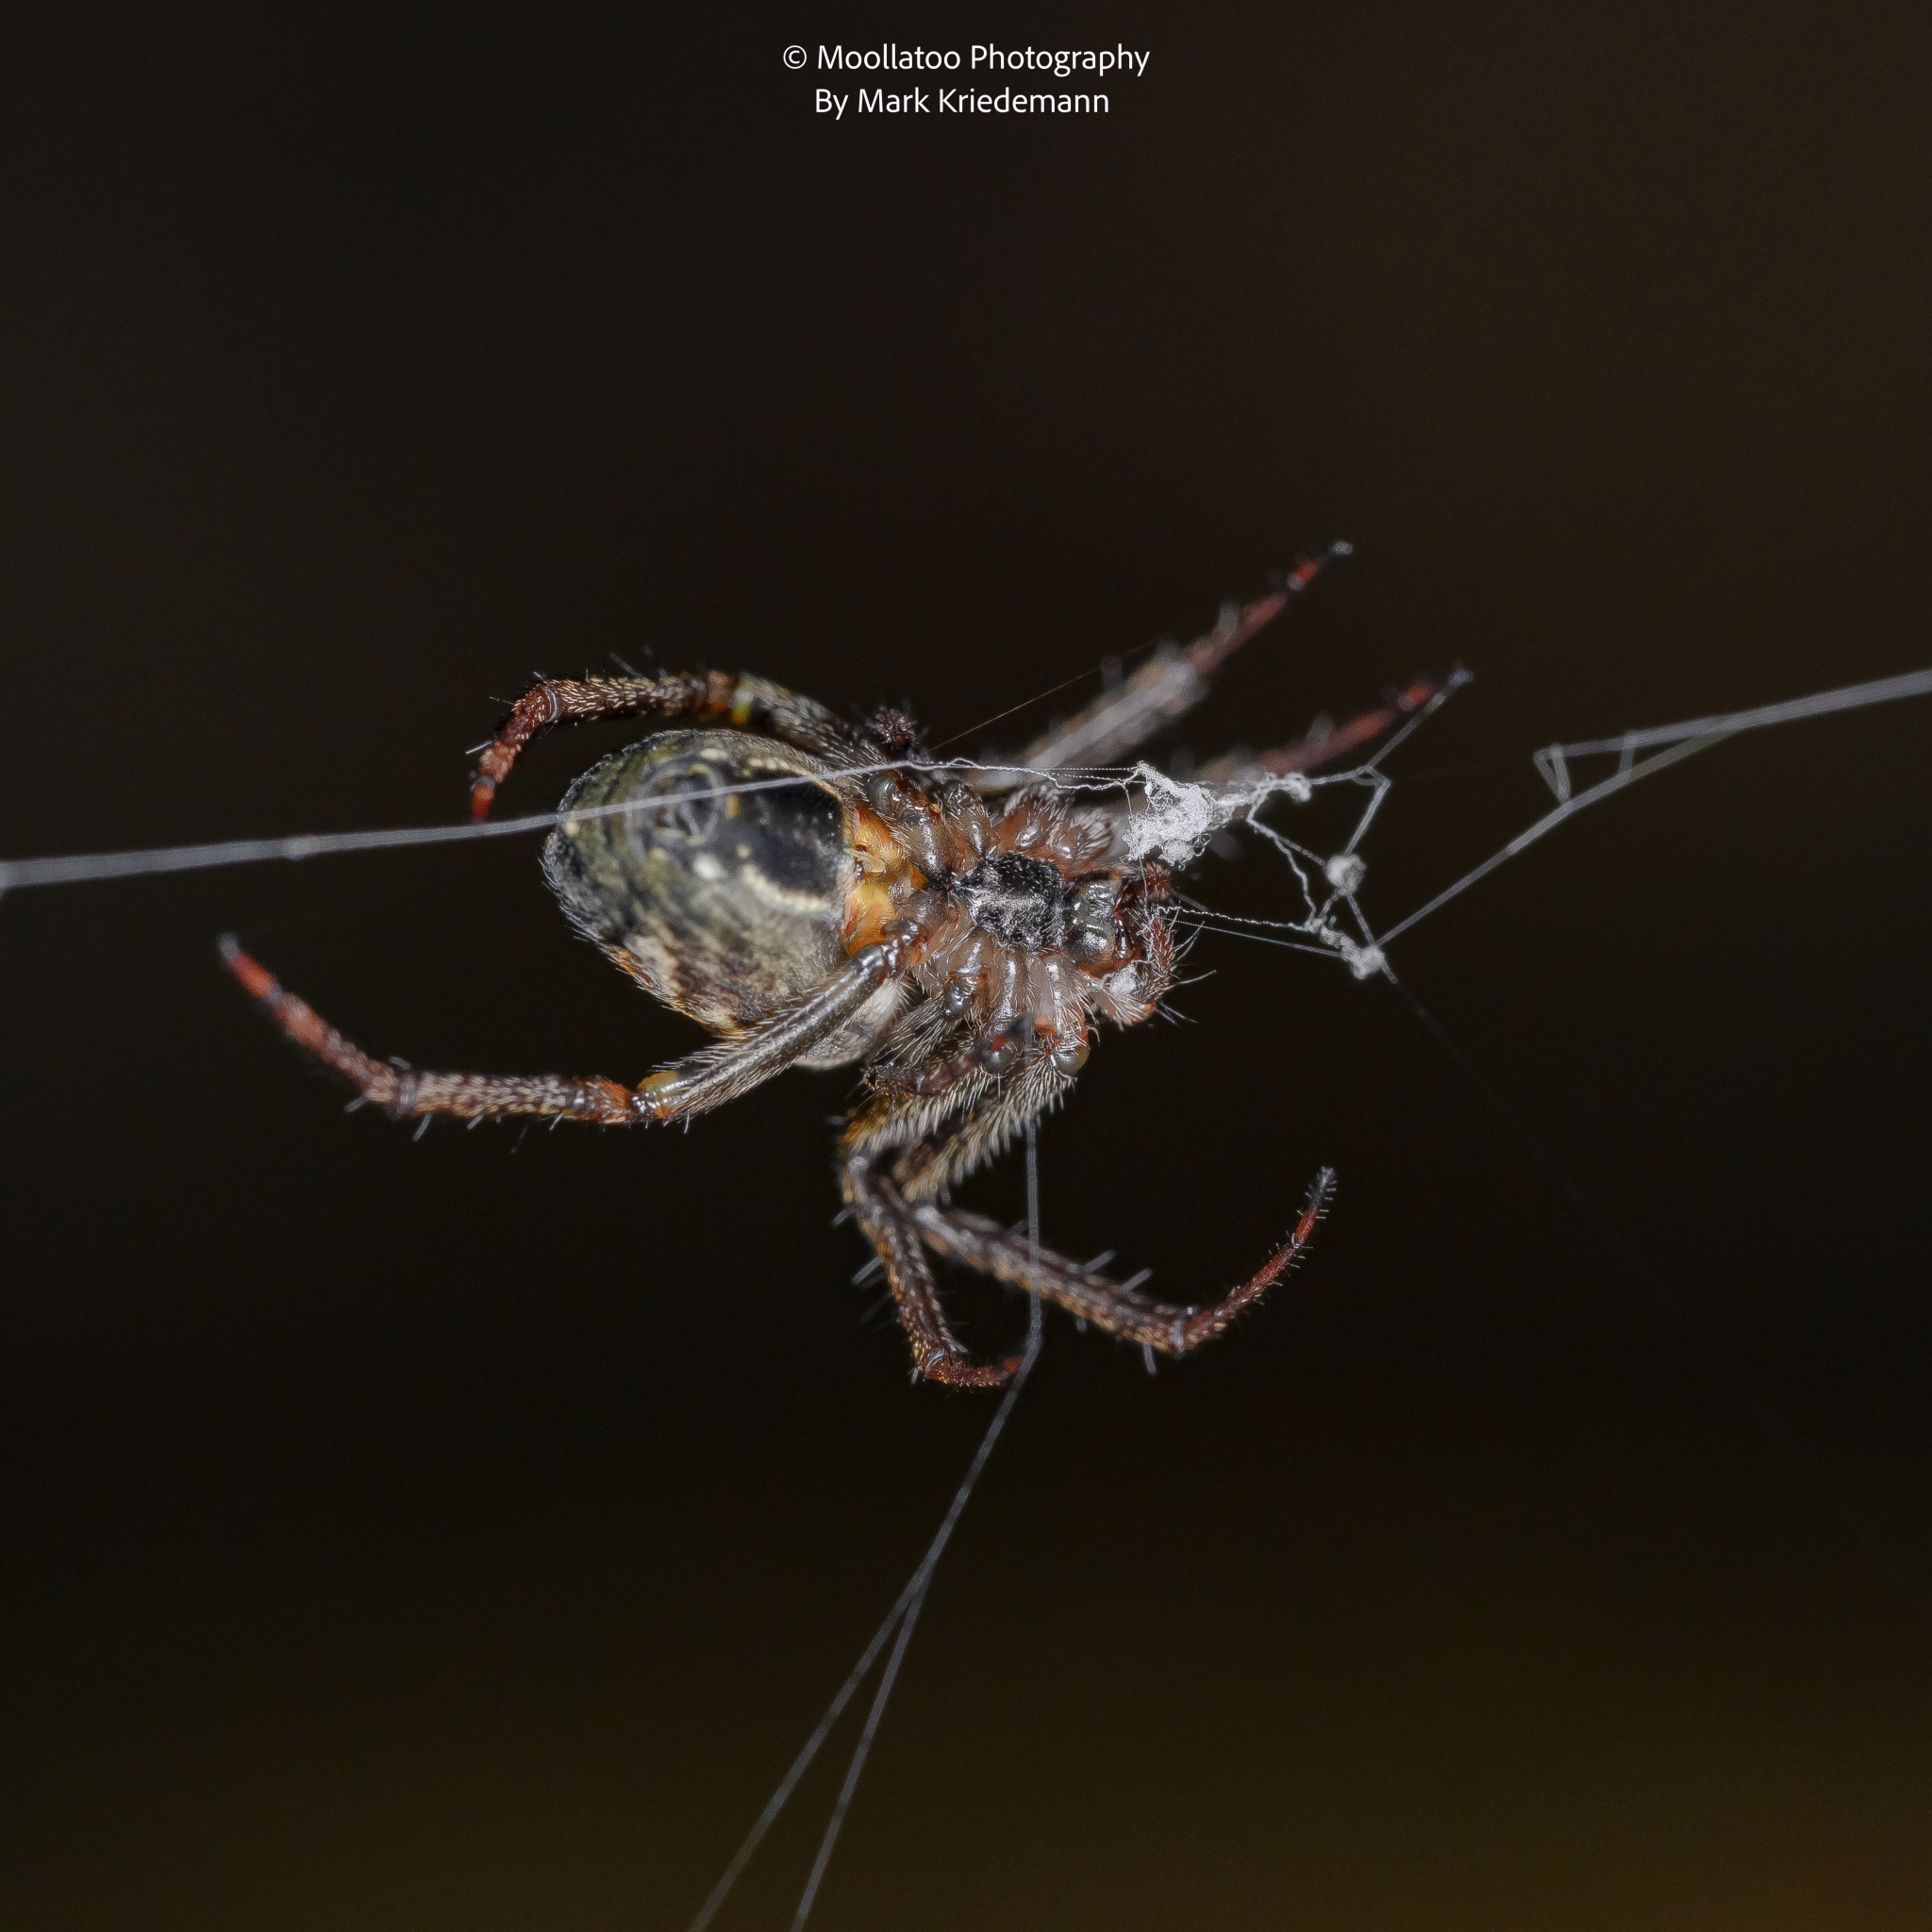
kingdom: Animalia
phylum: Arthropoda
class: Arachnida
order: Araneae
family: Araneidae
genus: Plebs
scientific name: Plebs eburnus
